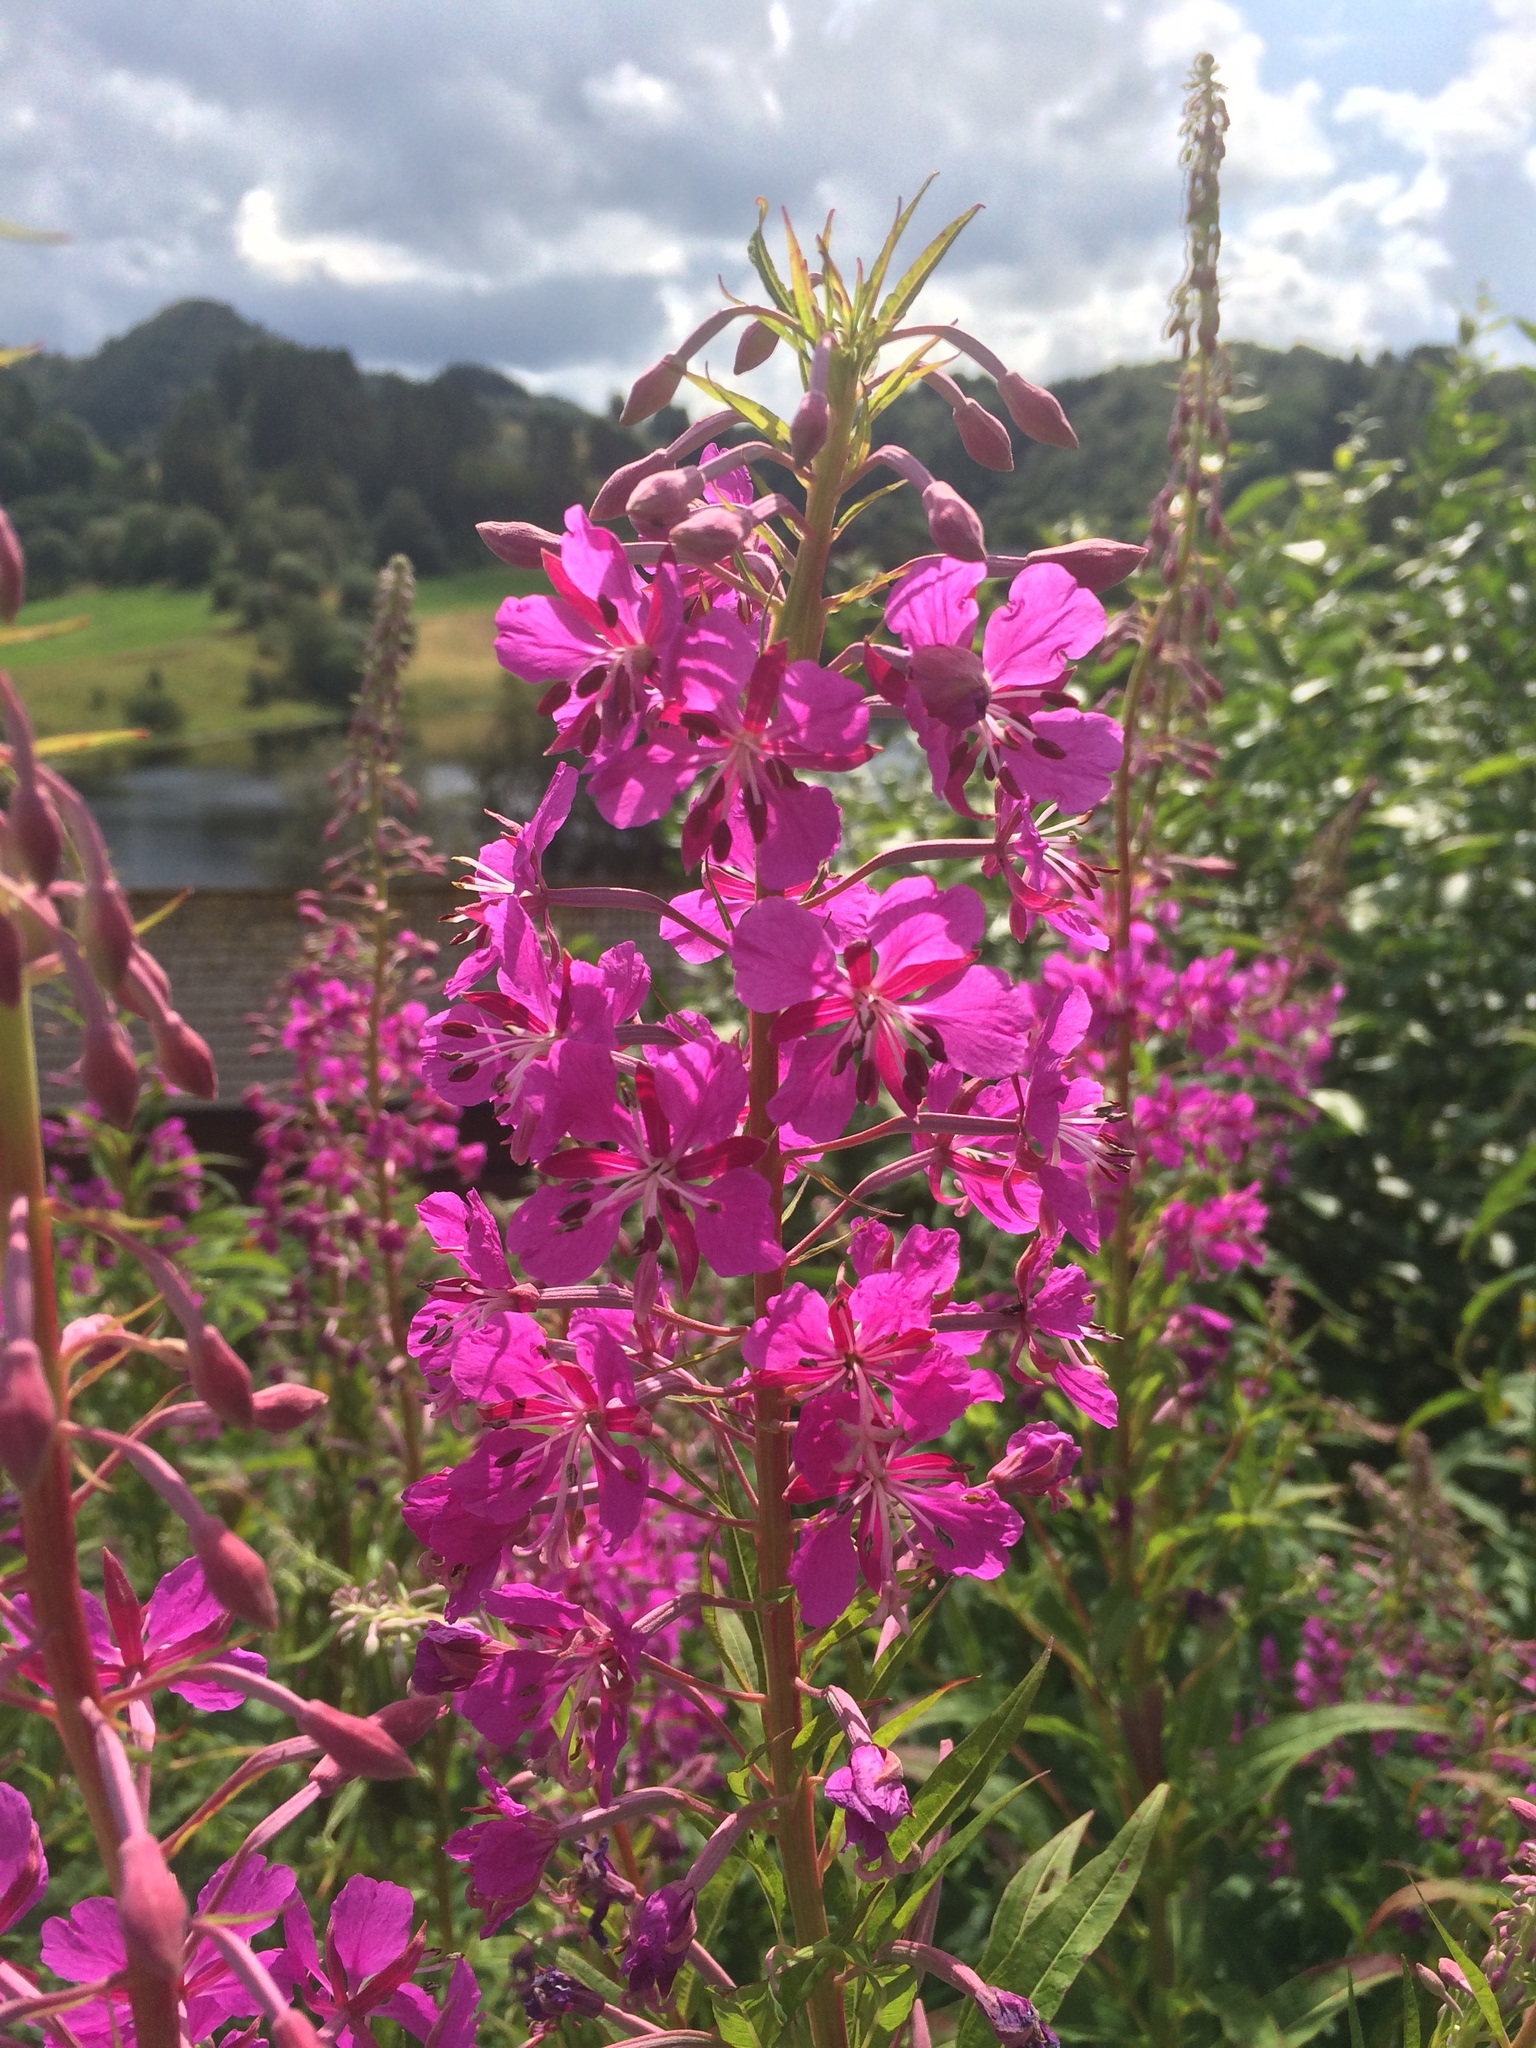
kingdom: Plantae
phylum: Tracheophyta
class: Magnoliopsida
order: Myrtales
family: Onagraceae
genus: Chamaenerion
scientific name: Chamaenerion angustifolium
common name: Fireweed
